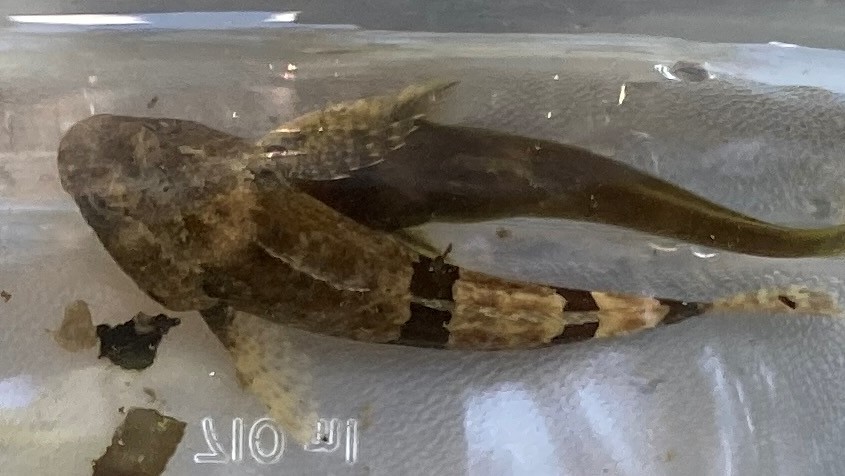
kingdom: Animalia
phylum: Chordata
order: Scorpaeniformes
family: Cottidae
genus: Cottus
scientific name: Cottus carolinae
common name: Banded sculpin
